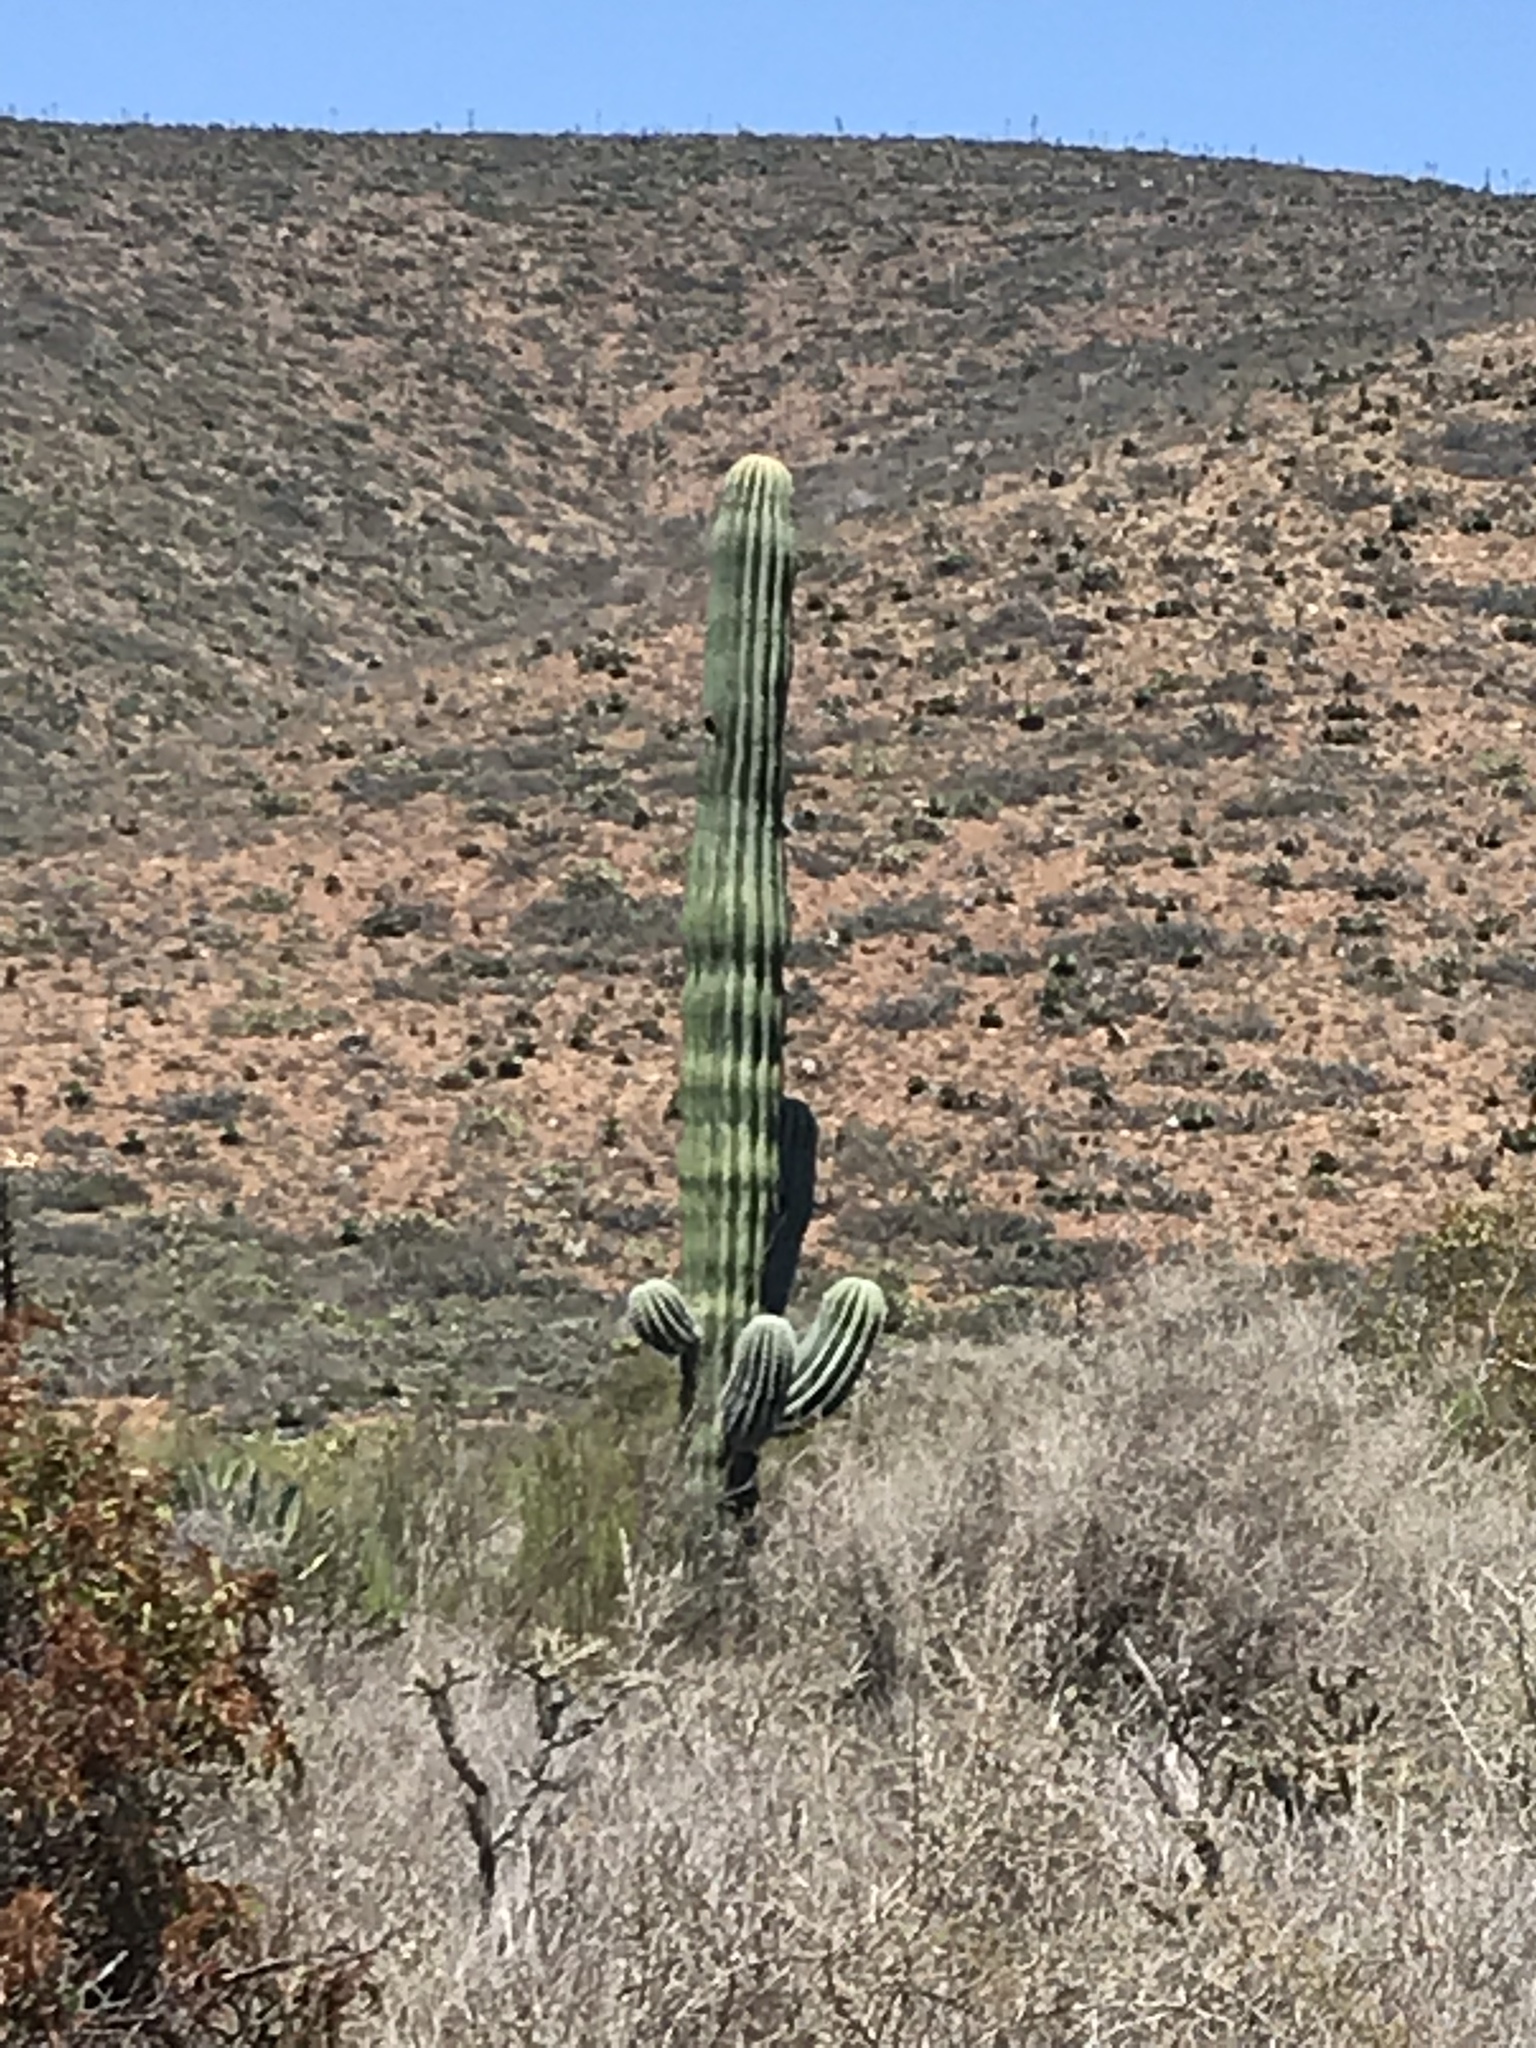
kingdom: Plantae
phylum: Tracheophyta
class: Magnoliopsida
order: Caryophyllales
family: Cactaceae
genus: Pachycereus
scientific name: Pachycereus pringlei
